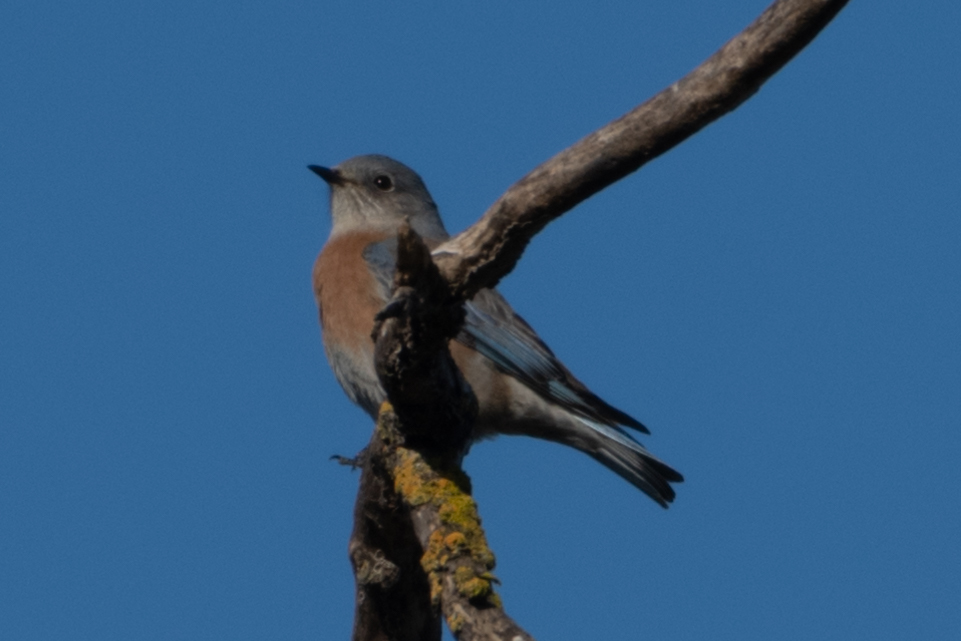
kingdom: Animalia
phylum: Chordata
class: Aves
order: Passeriformes
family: Turdidae
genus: Sialia
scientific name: Sialia mexicana
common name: Western bluebird
